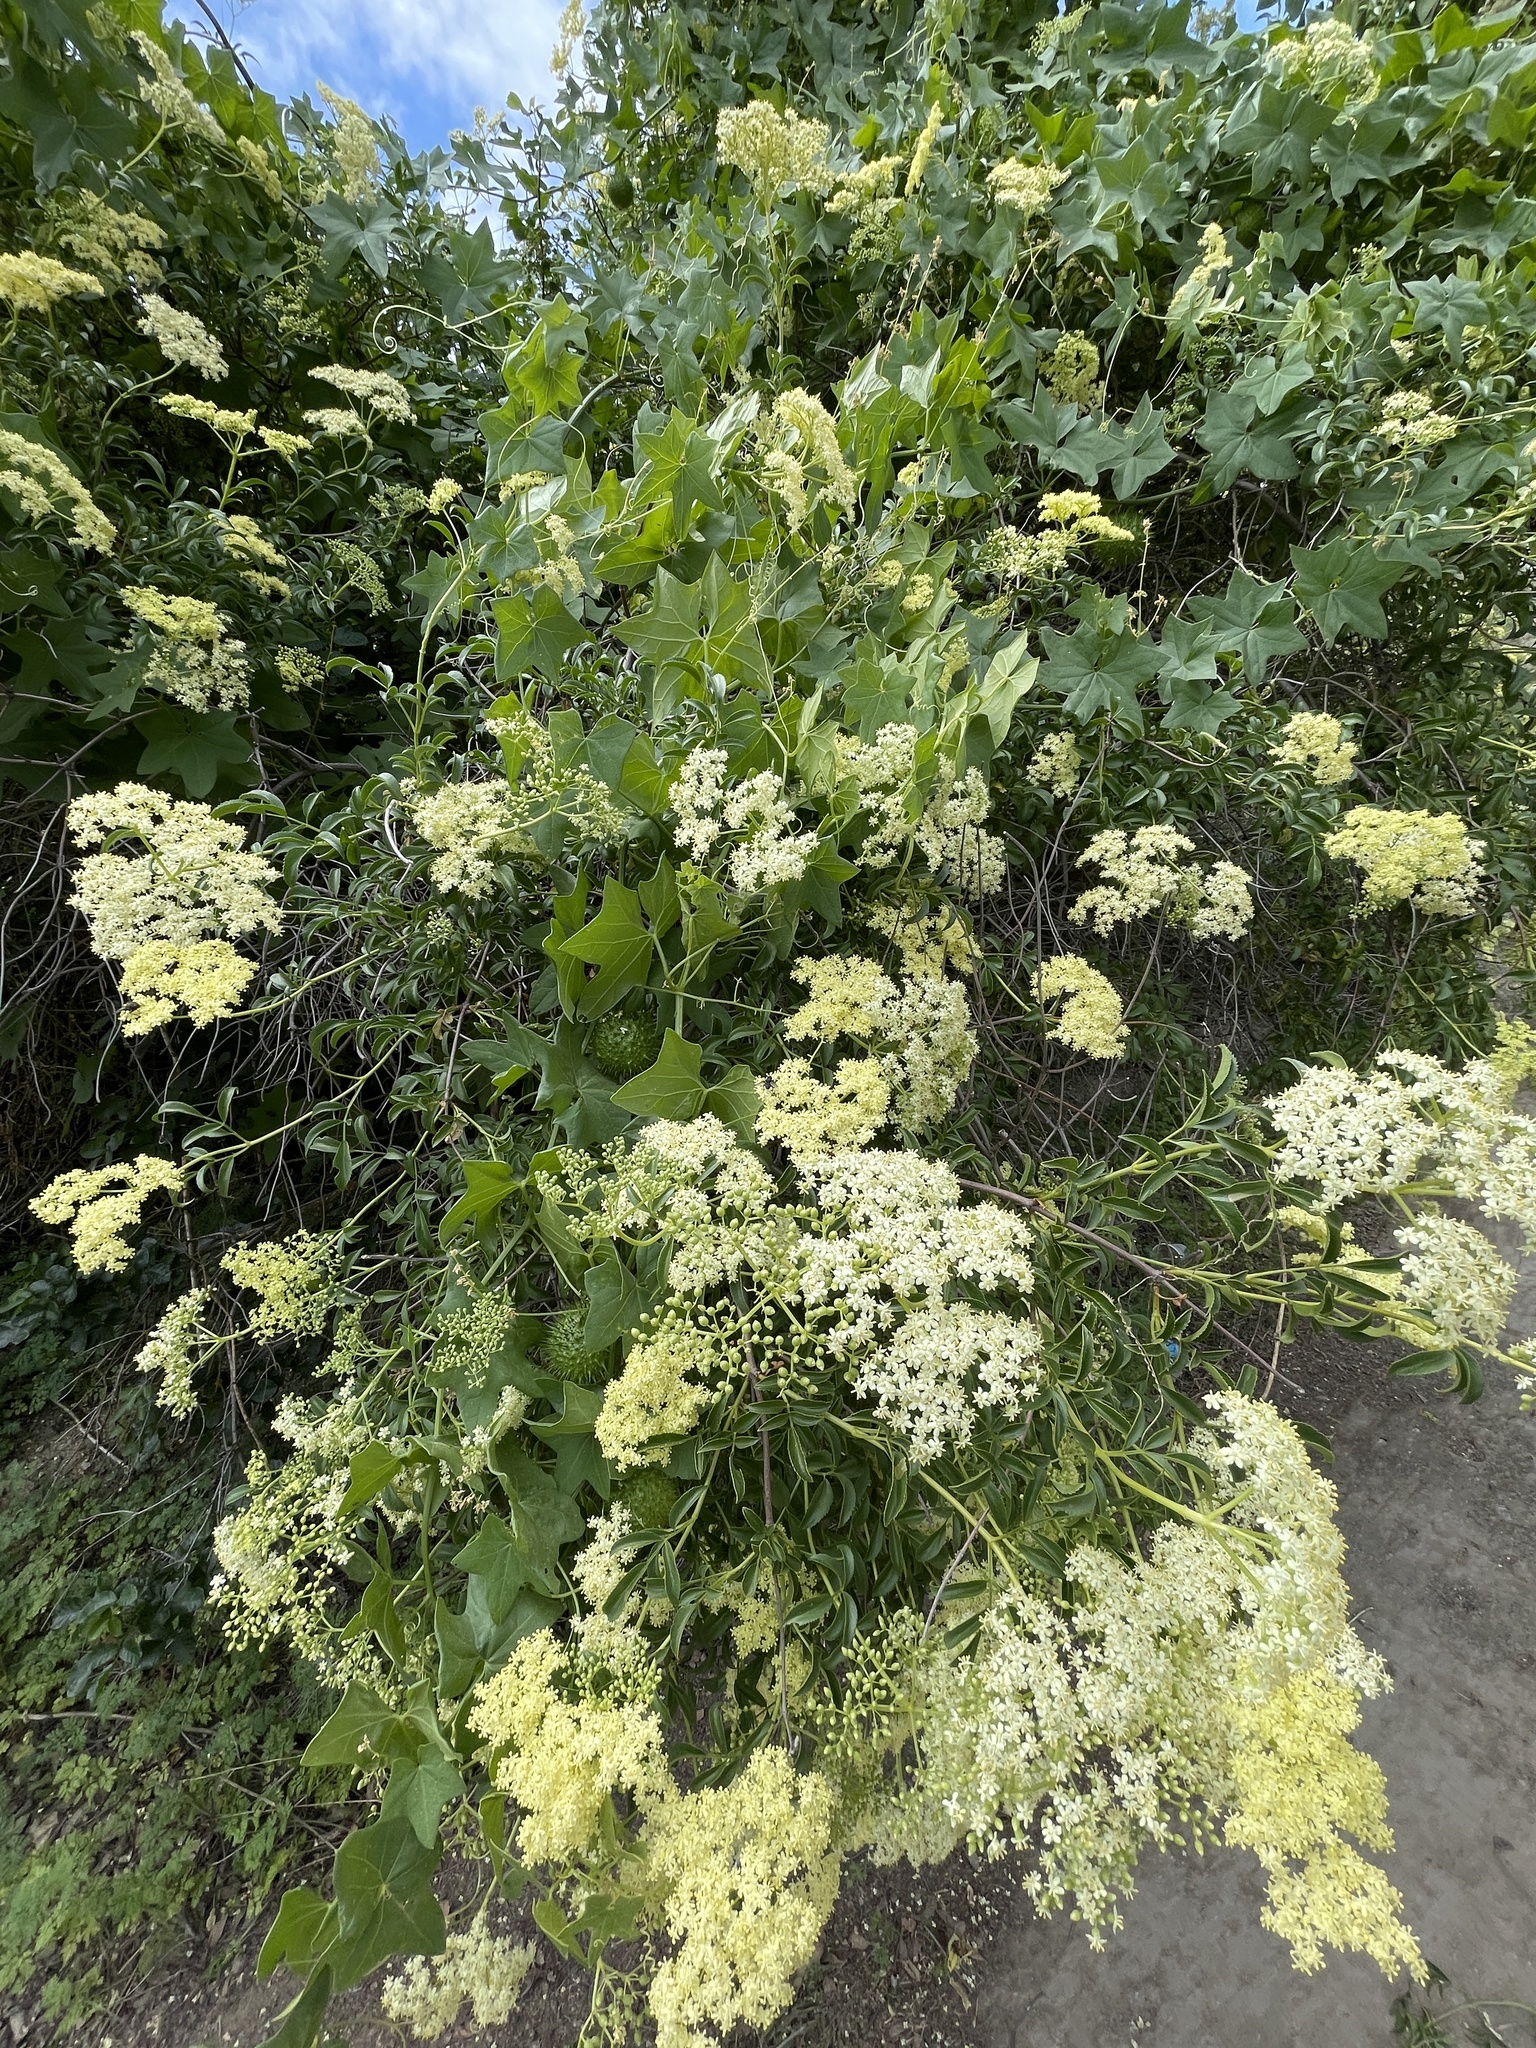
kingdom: Plantae
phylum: Tracheophyta
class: Magnoliopsida
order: Dipsacales
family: Viburnaceae
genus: Sambucus
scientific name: Sambucus cerulea
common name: Blue elder
